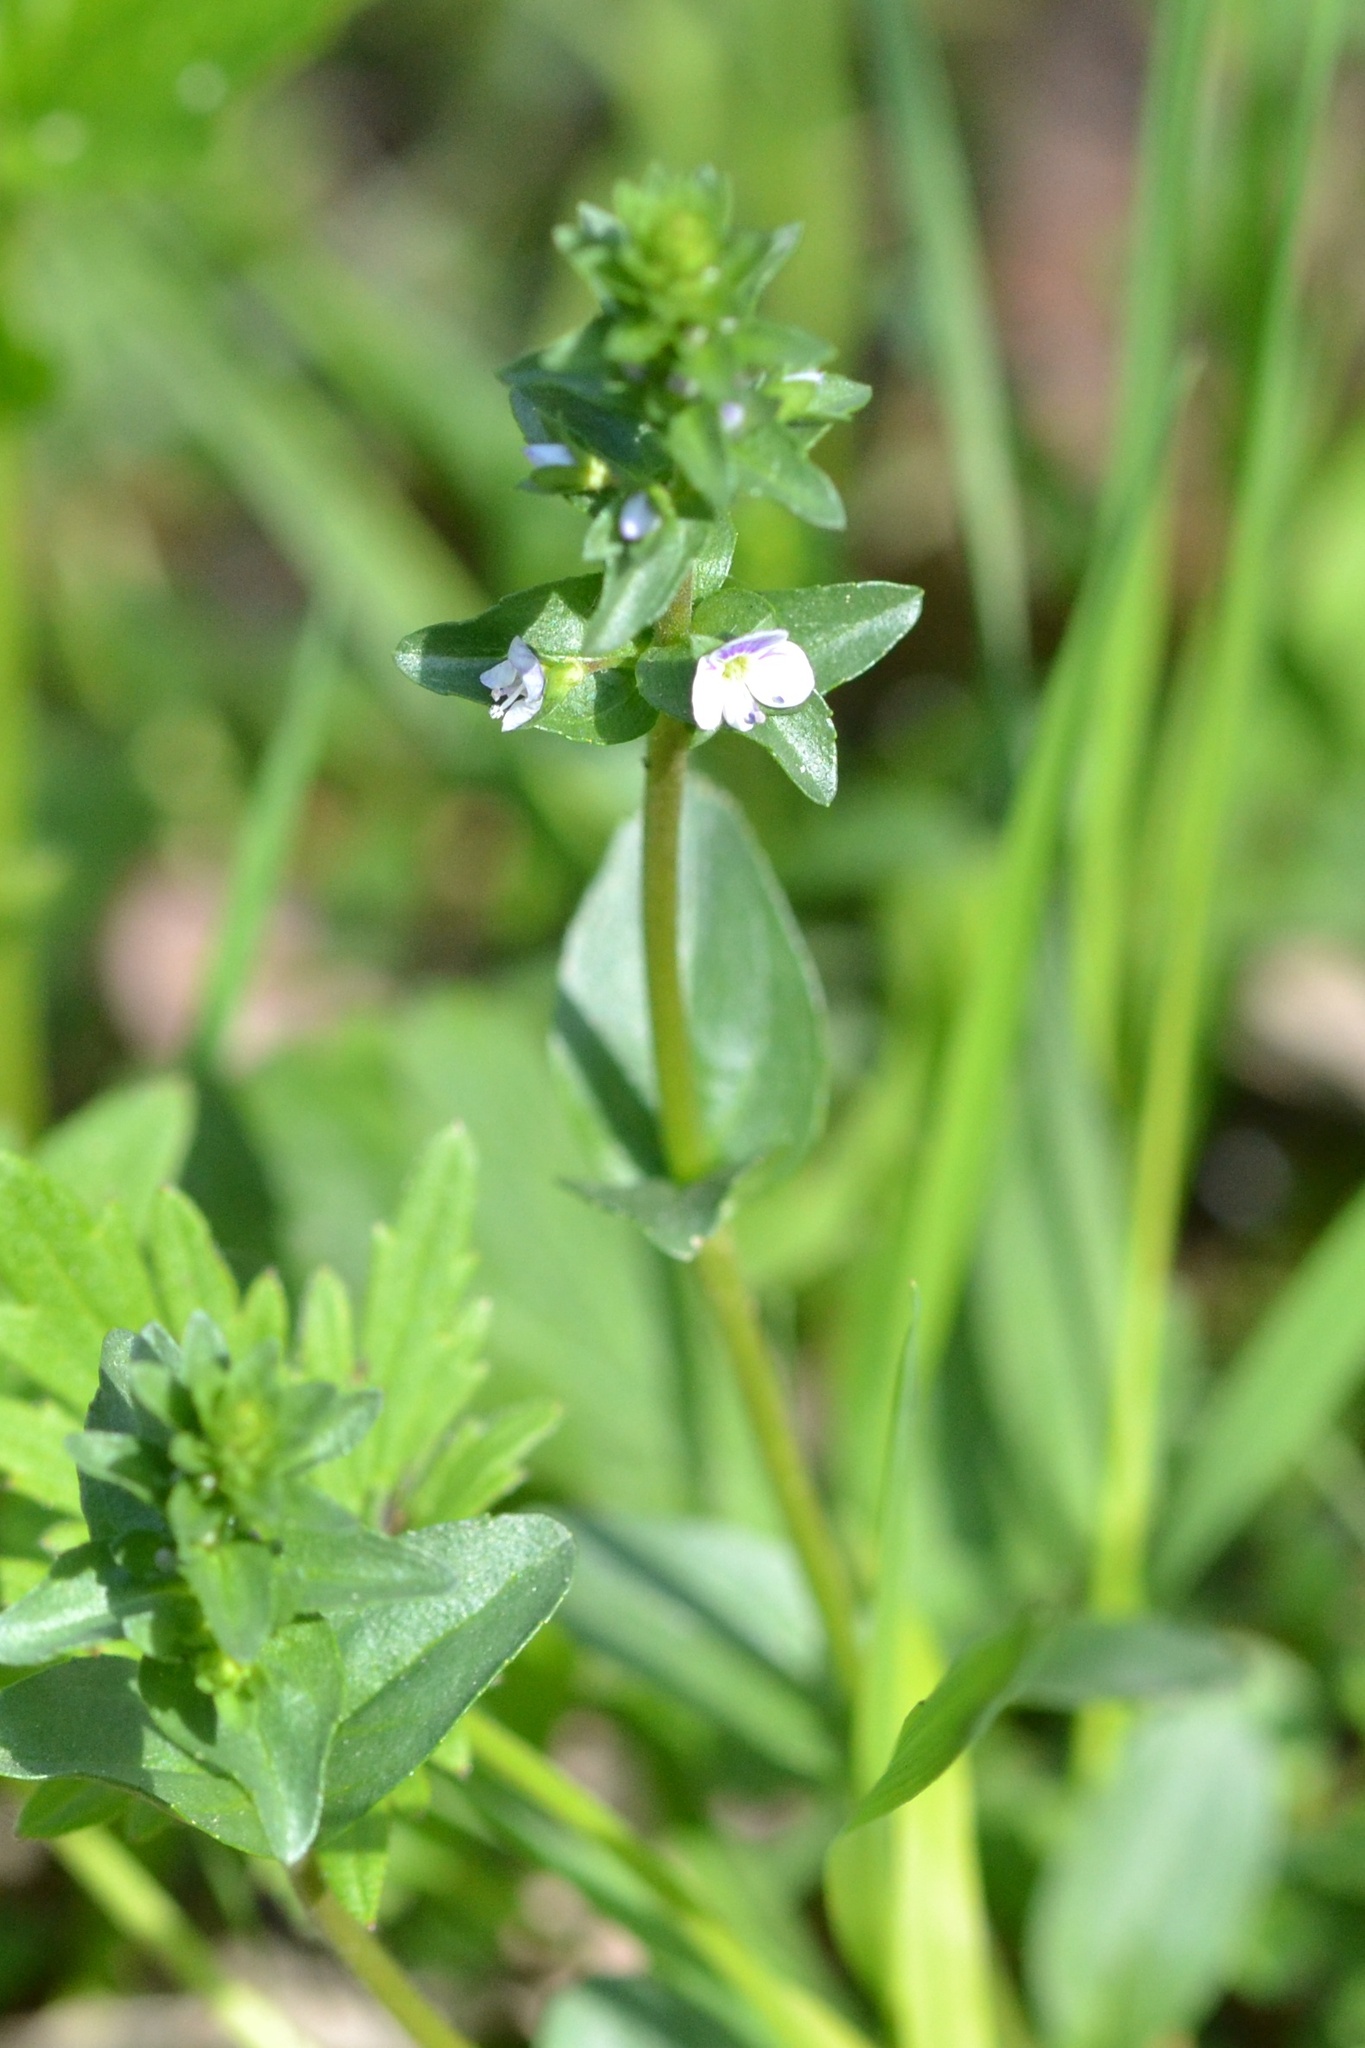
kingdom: Plantae
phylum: Tracheophyta
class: Magnoliopsida
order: Lamiales
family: Plantaginaceae
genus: Veronica
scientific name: Veronica serpyllifolia
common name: Thyme-leaved speedwell
